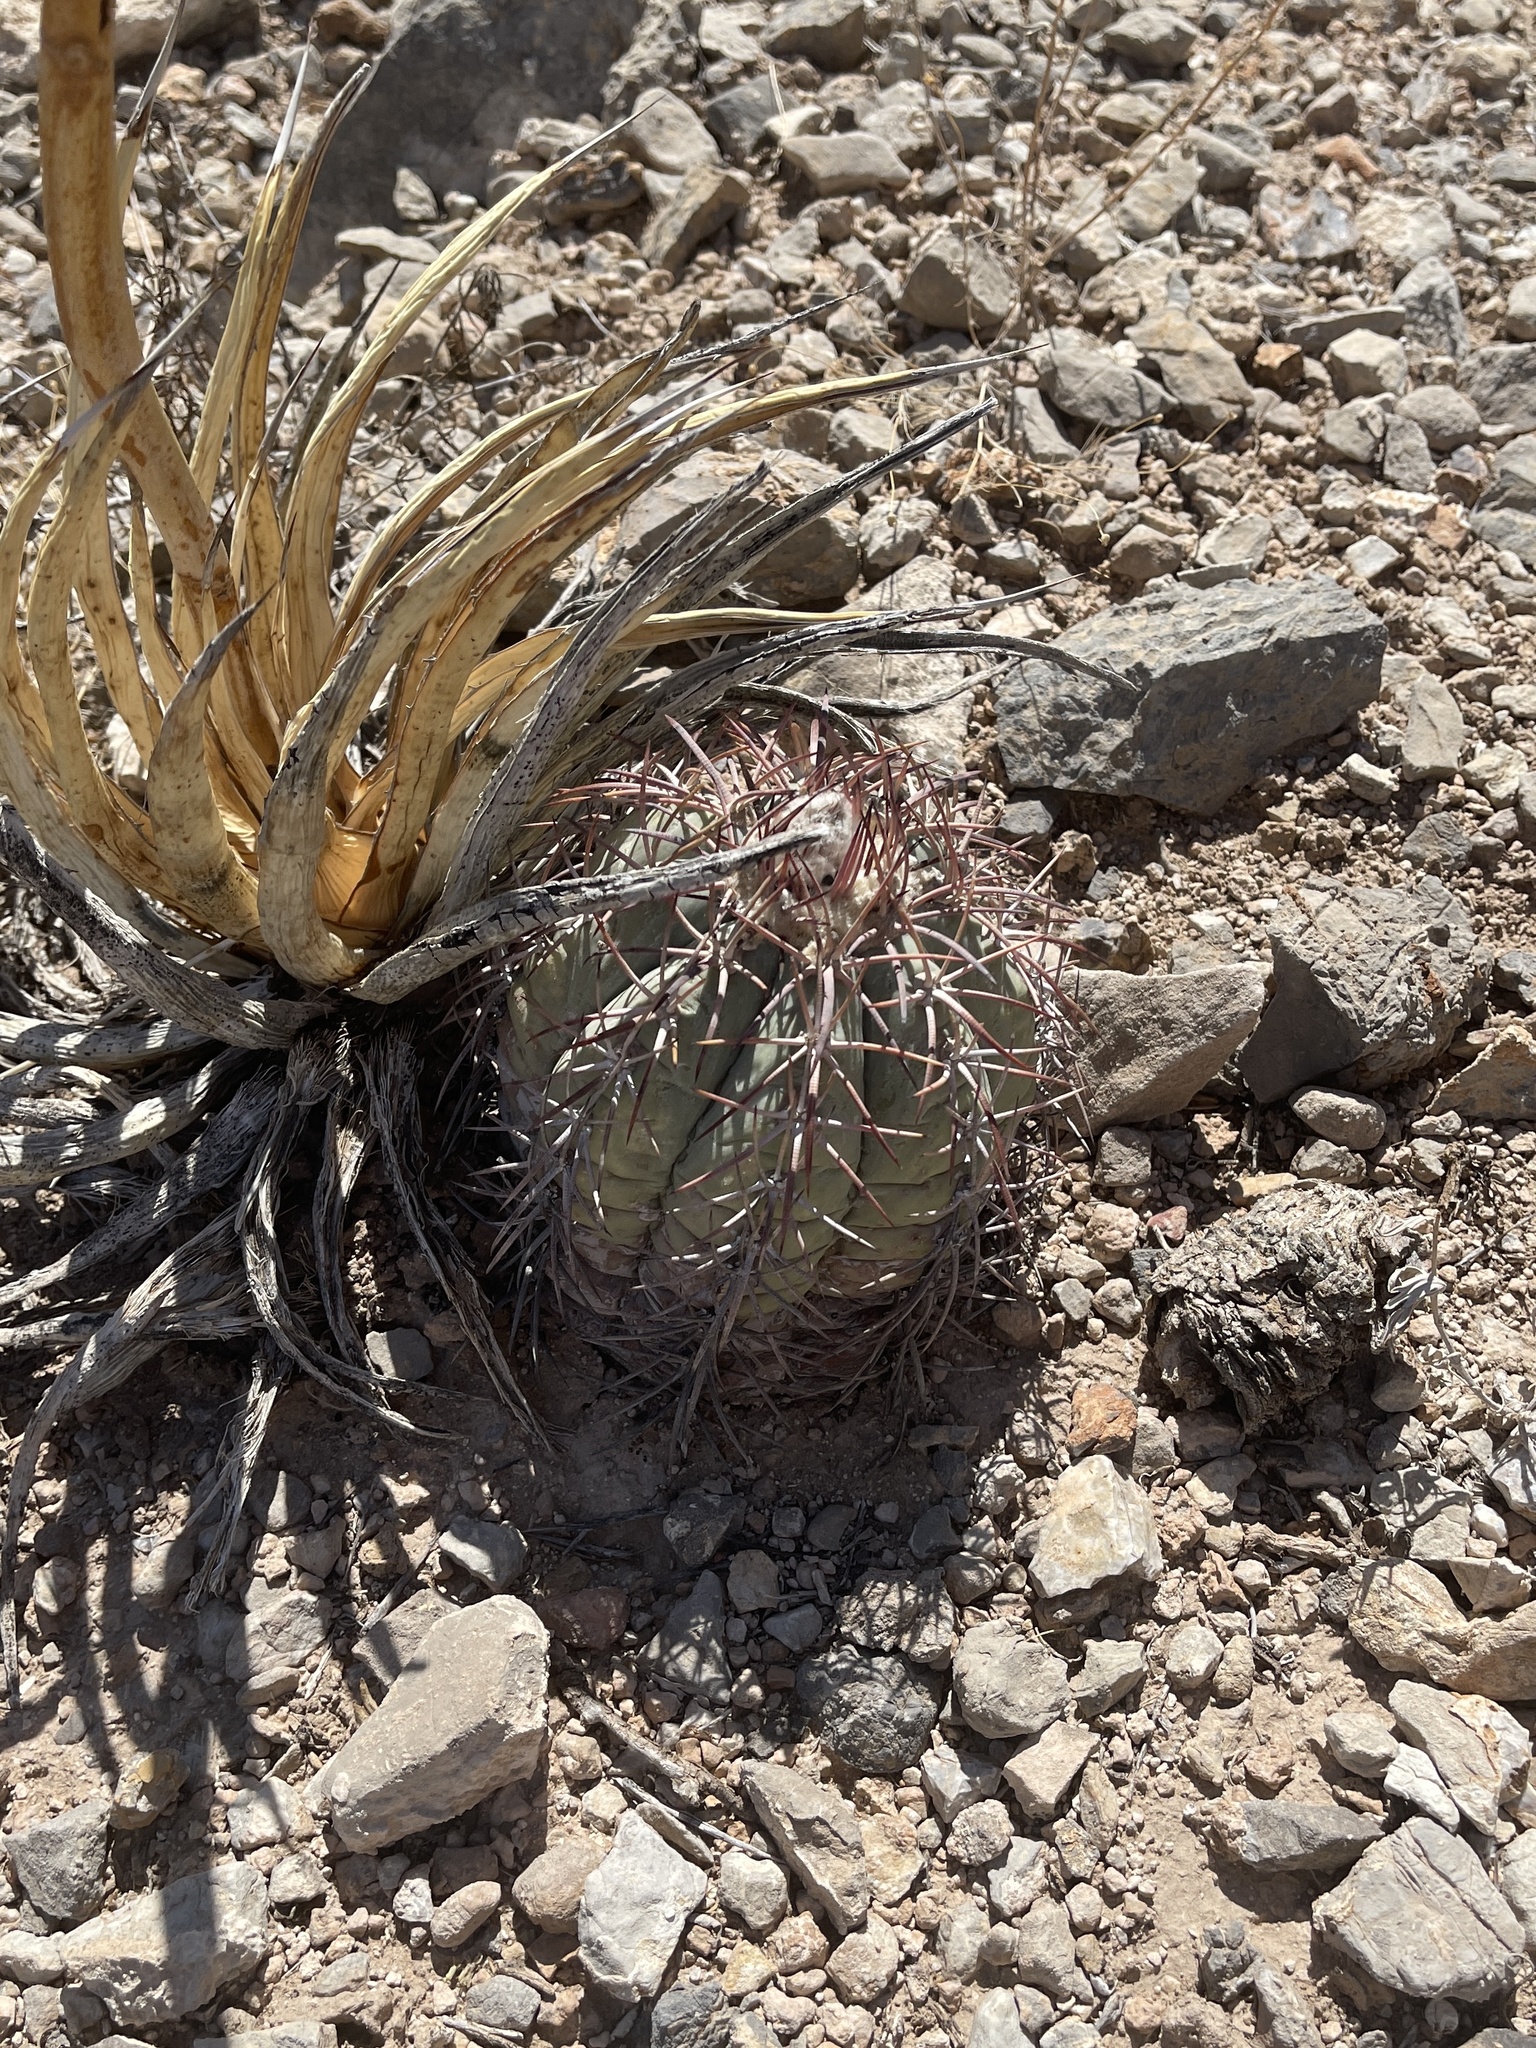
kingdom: Plantae
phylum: Tracheophyta
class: Magnoliopsida
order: Caryophyllales
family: Cactaceae
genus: Echinocactus
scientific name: Echinocactus horizonthalonius
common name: Devilshead
